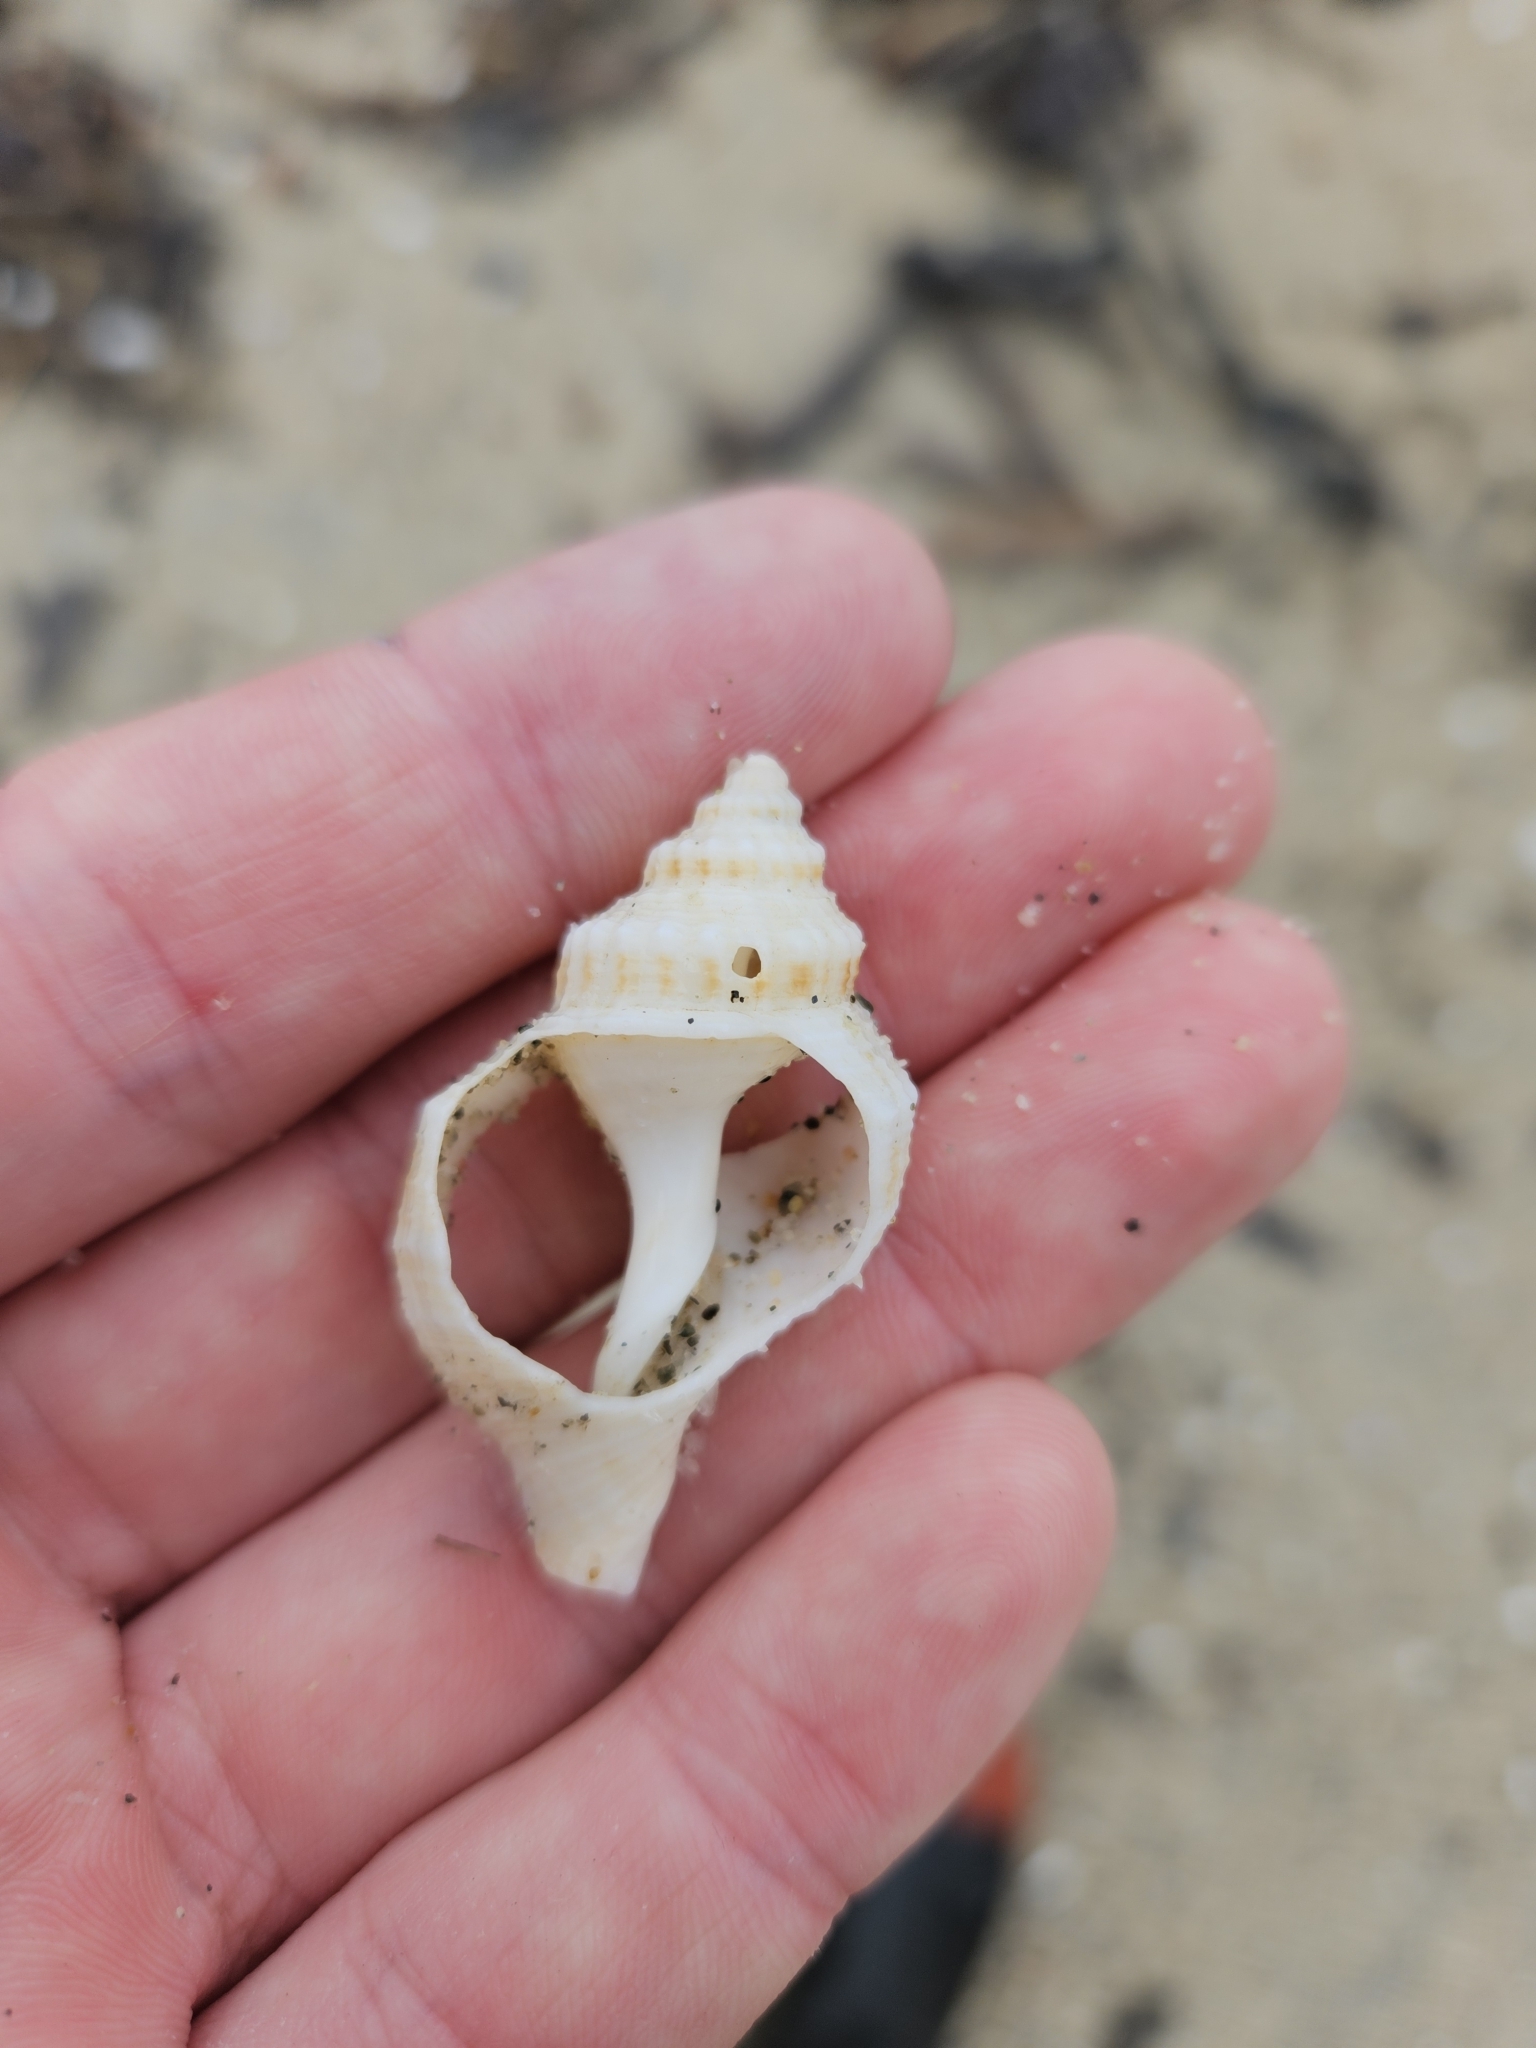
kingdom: Animalia
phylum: Mollusca
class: Gastropoda
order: Neogastropoda
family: Prosiphonidae
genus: Austrofusus
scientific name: Austrofusus glans
